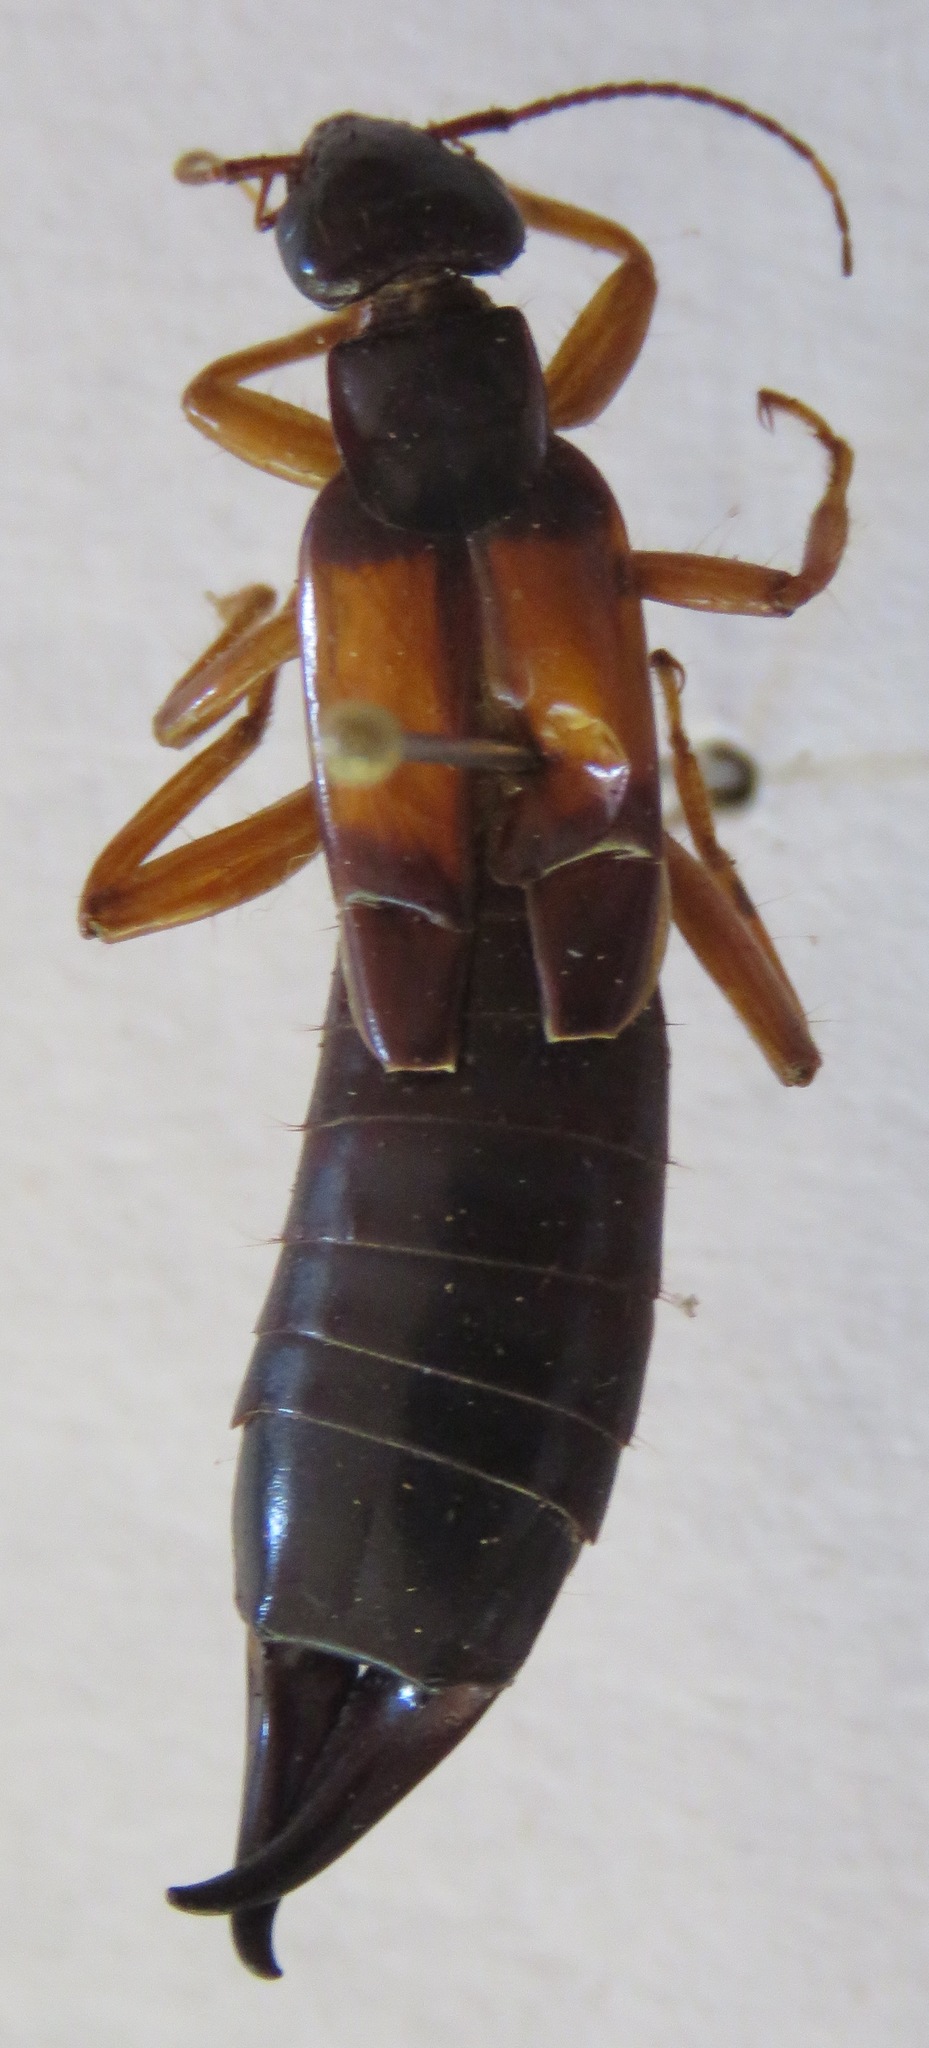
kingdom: Animalia
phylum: Arthropoda
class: Insecta
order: Dermaptera
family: Anisolabididae
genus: Carcinophora
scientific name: Carcinophora americana
